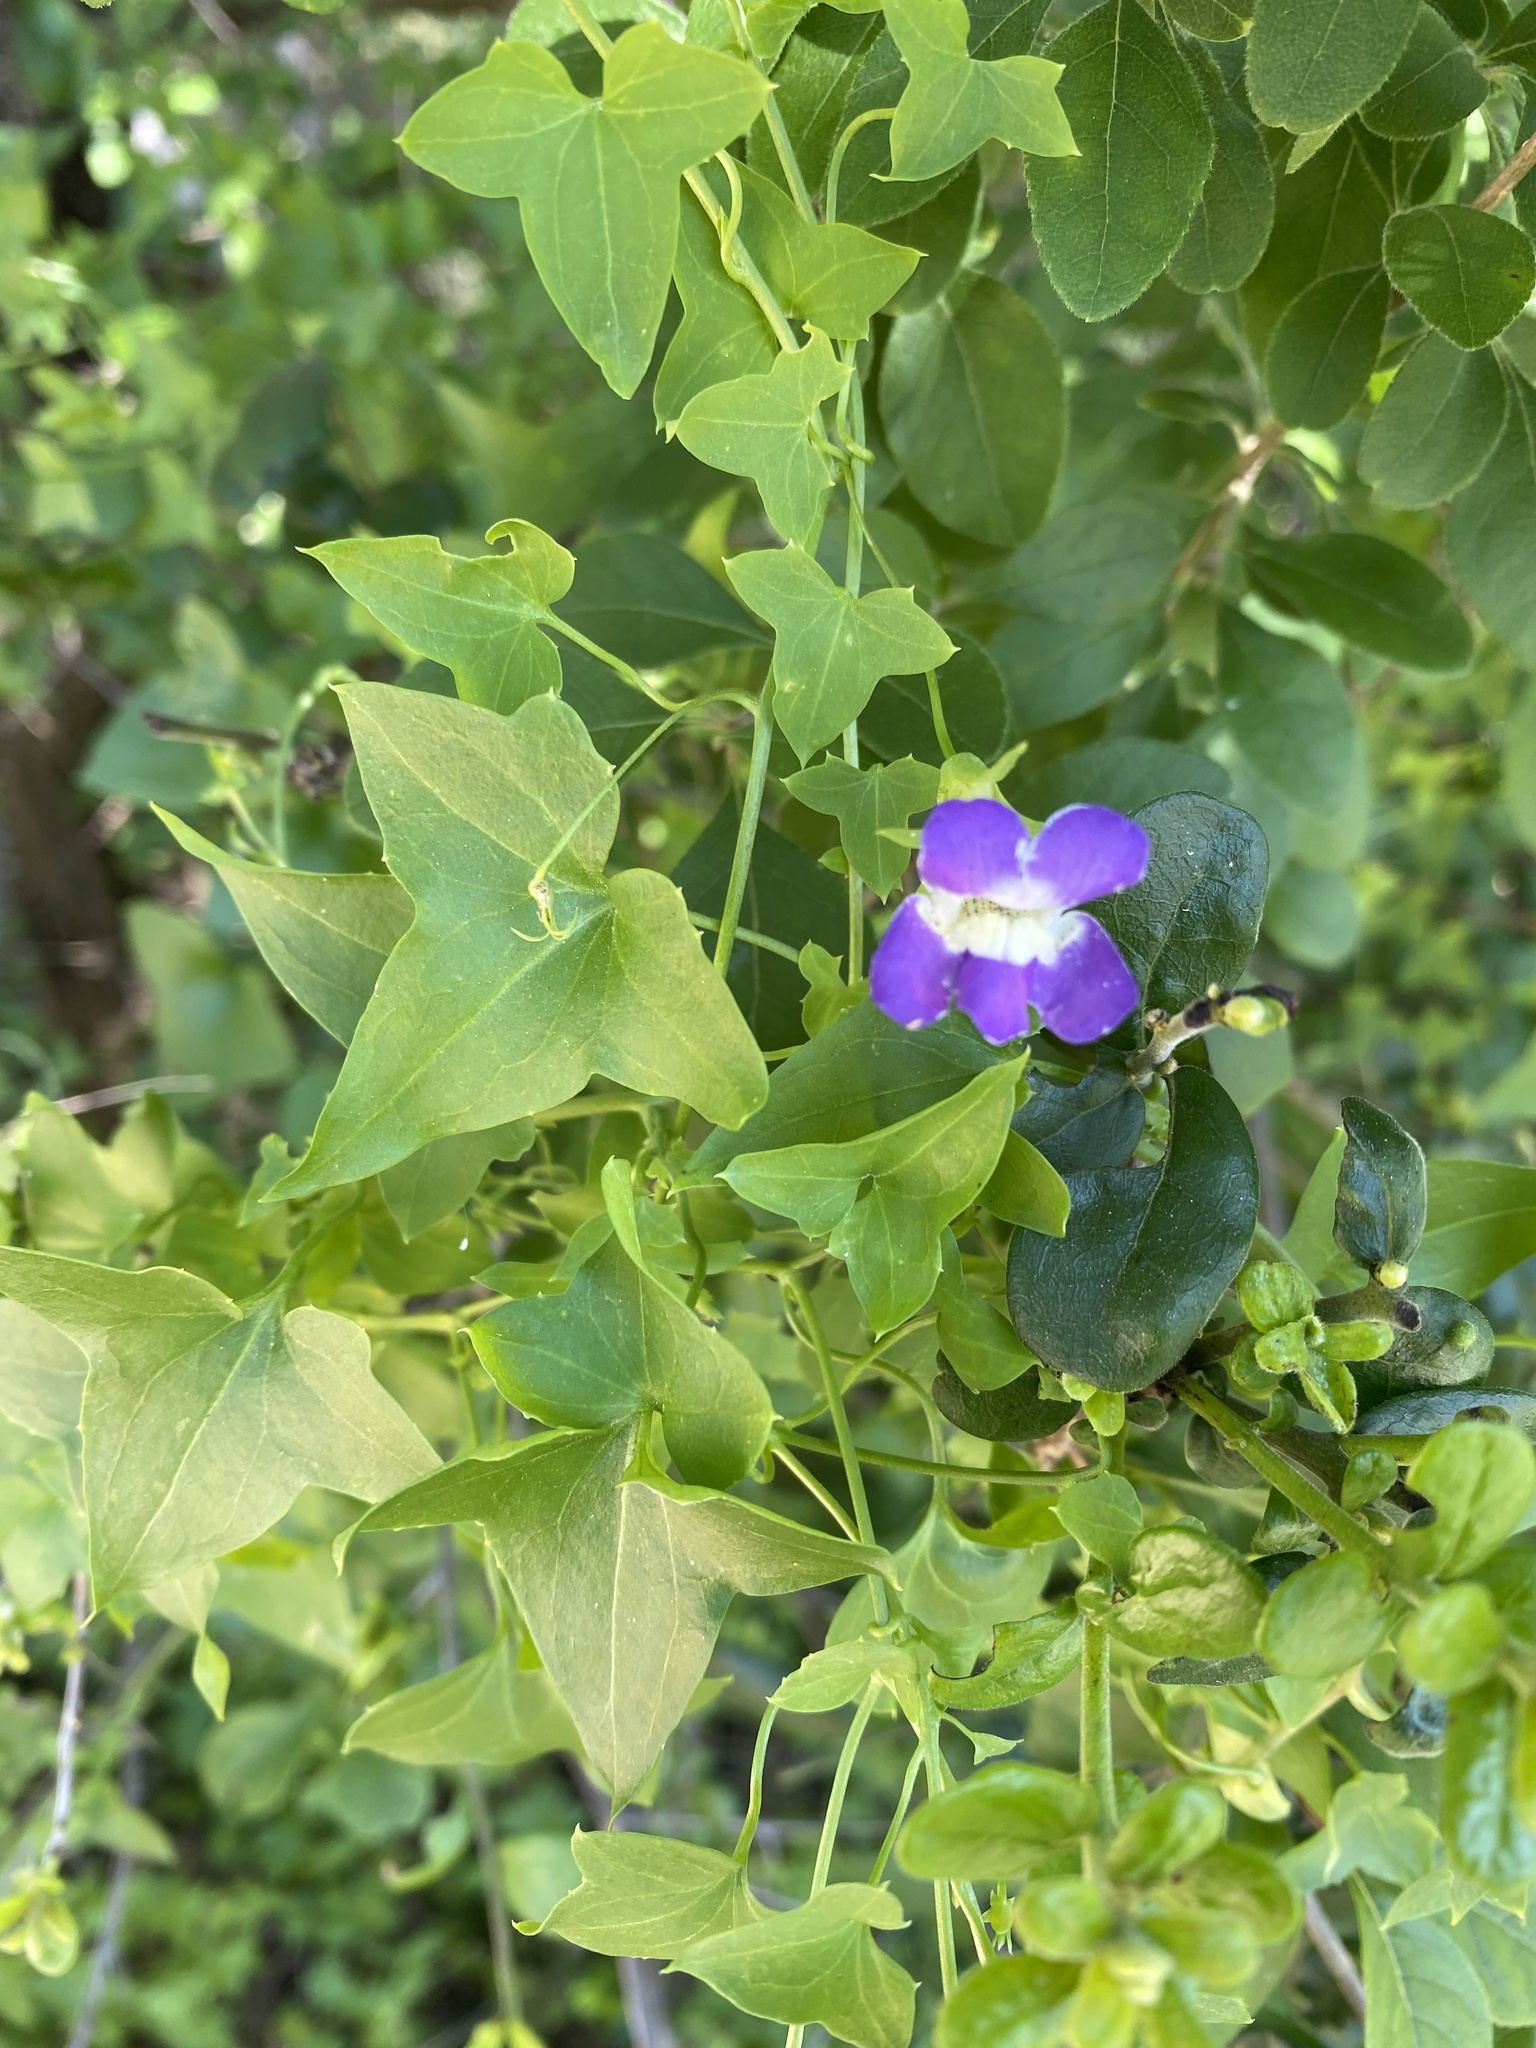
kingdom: Plantae
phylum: Tracheophyta
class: Magnoliopsida
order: Lamiales
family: Plantaginaceae
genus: Maurandella
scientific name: Maurandella antirrhiniflora
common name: Violet twining-snapdragon
